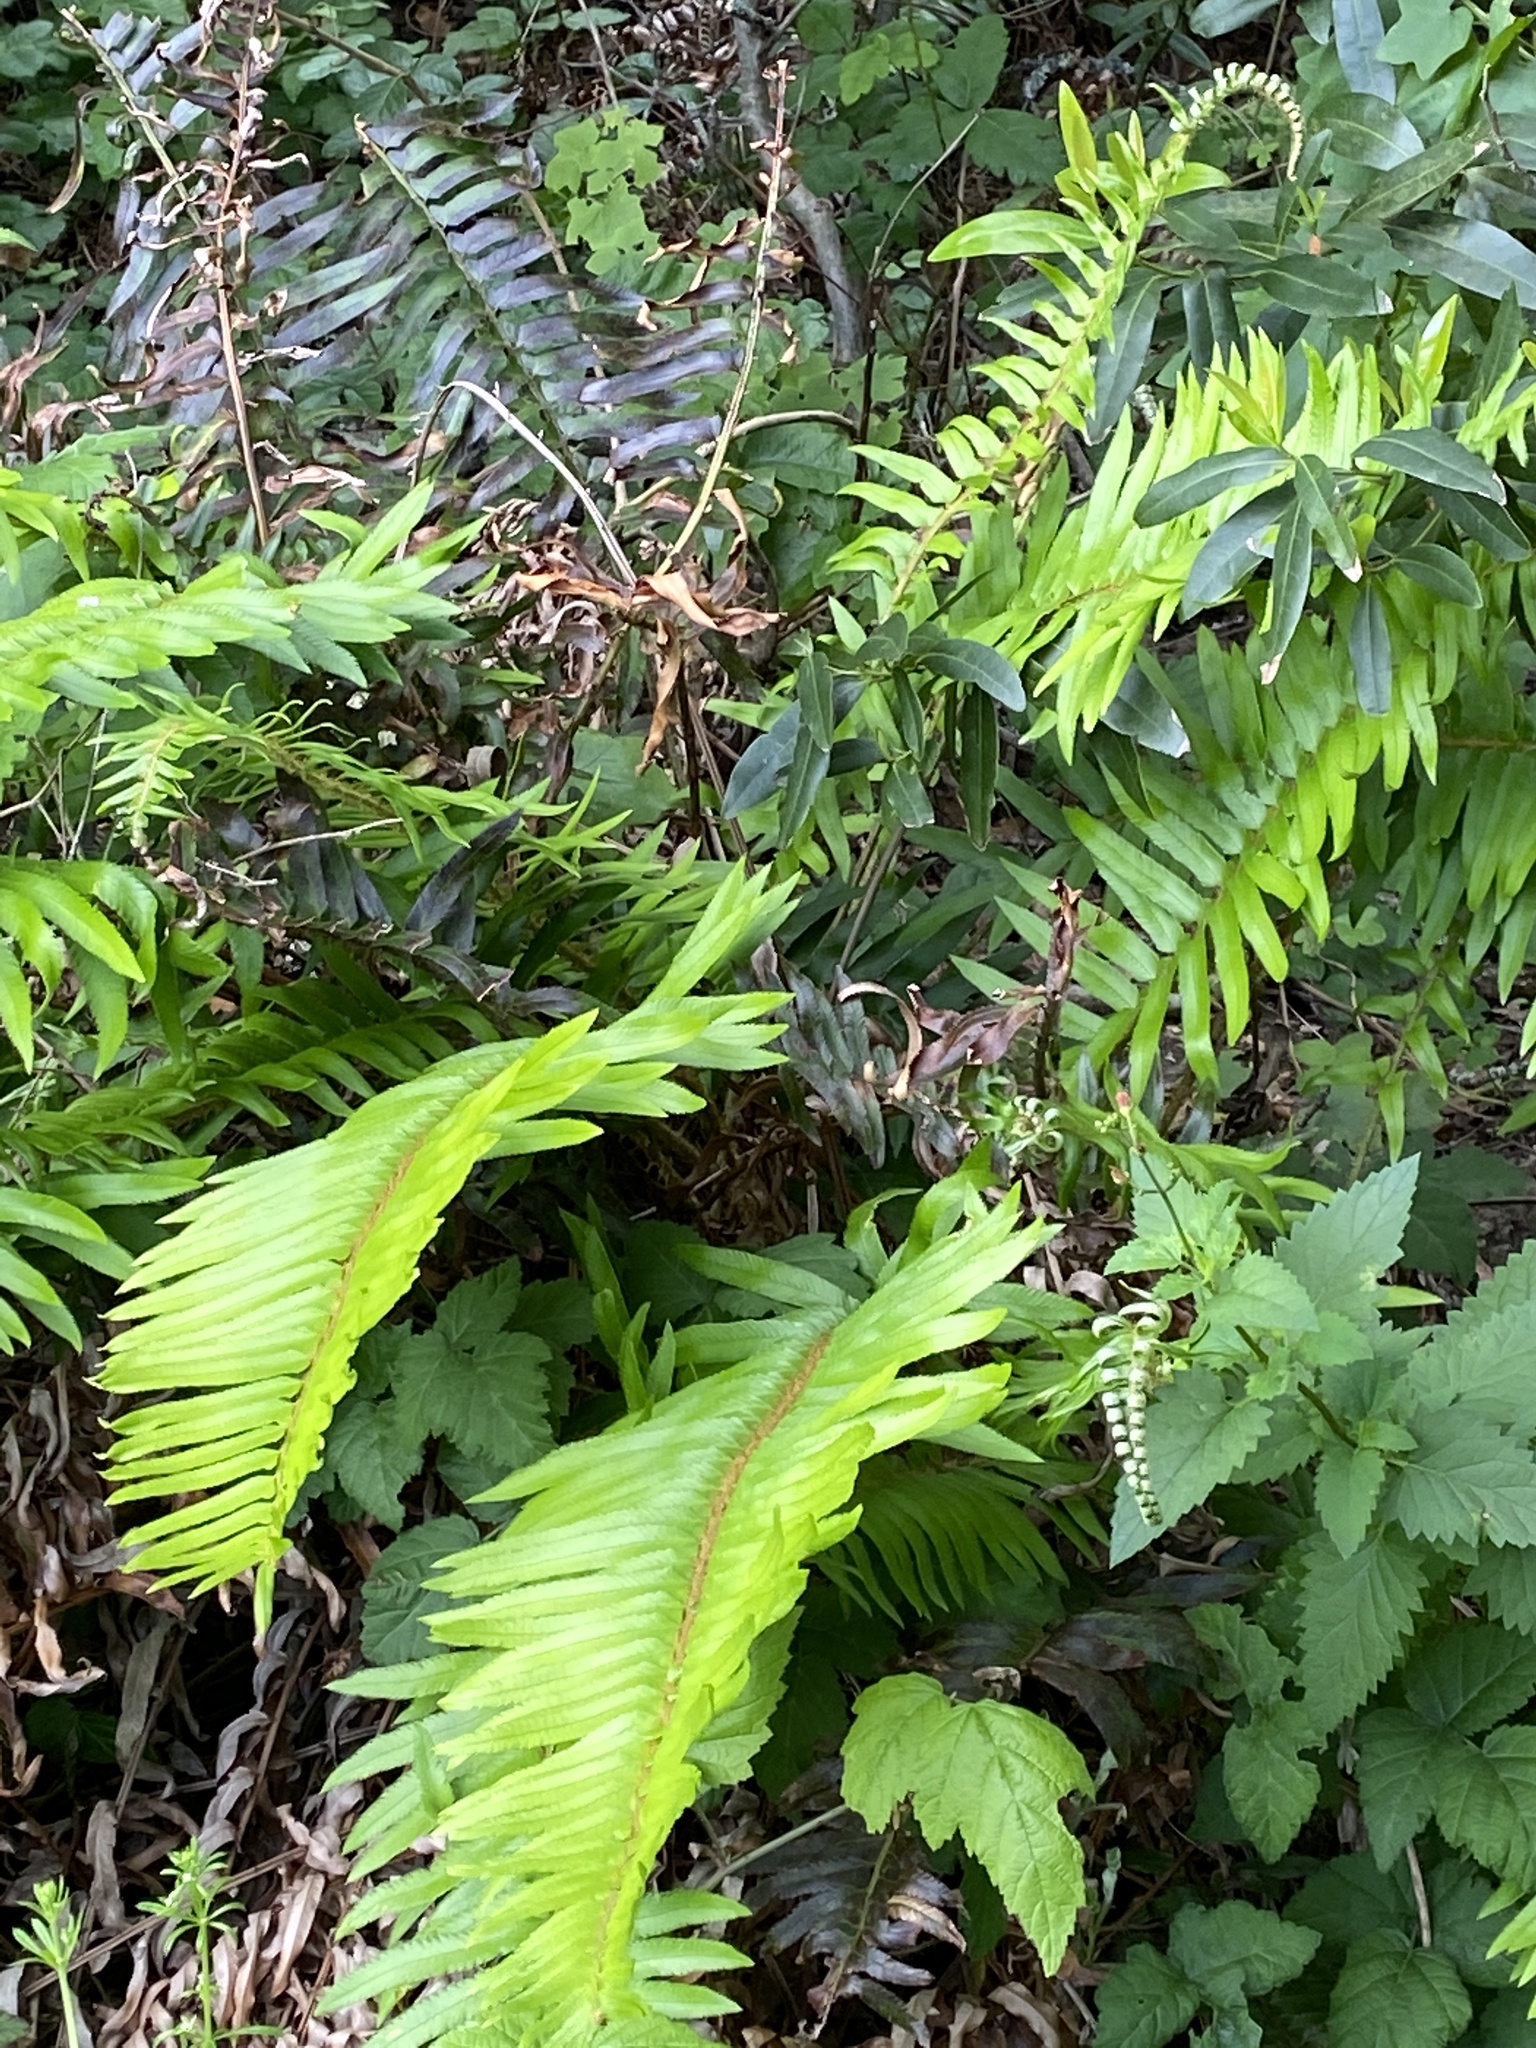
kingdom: Plantae
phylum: Tracheophyta
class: Polypodiopsida
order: Polypodiales
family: Dryopteridaceae
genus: Polystichum
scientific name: Polystichum munitum
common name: Western sword-fern
